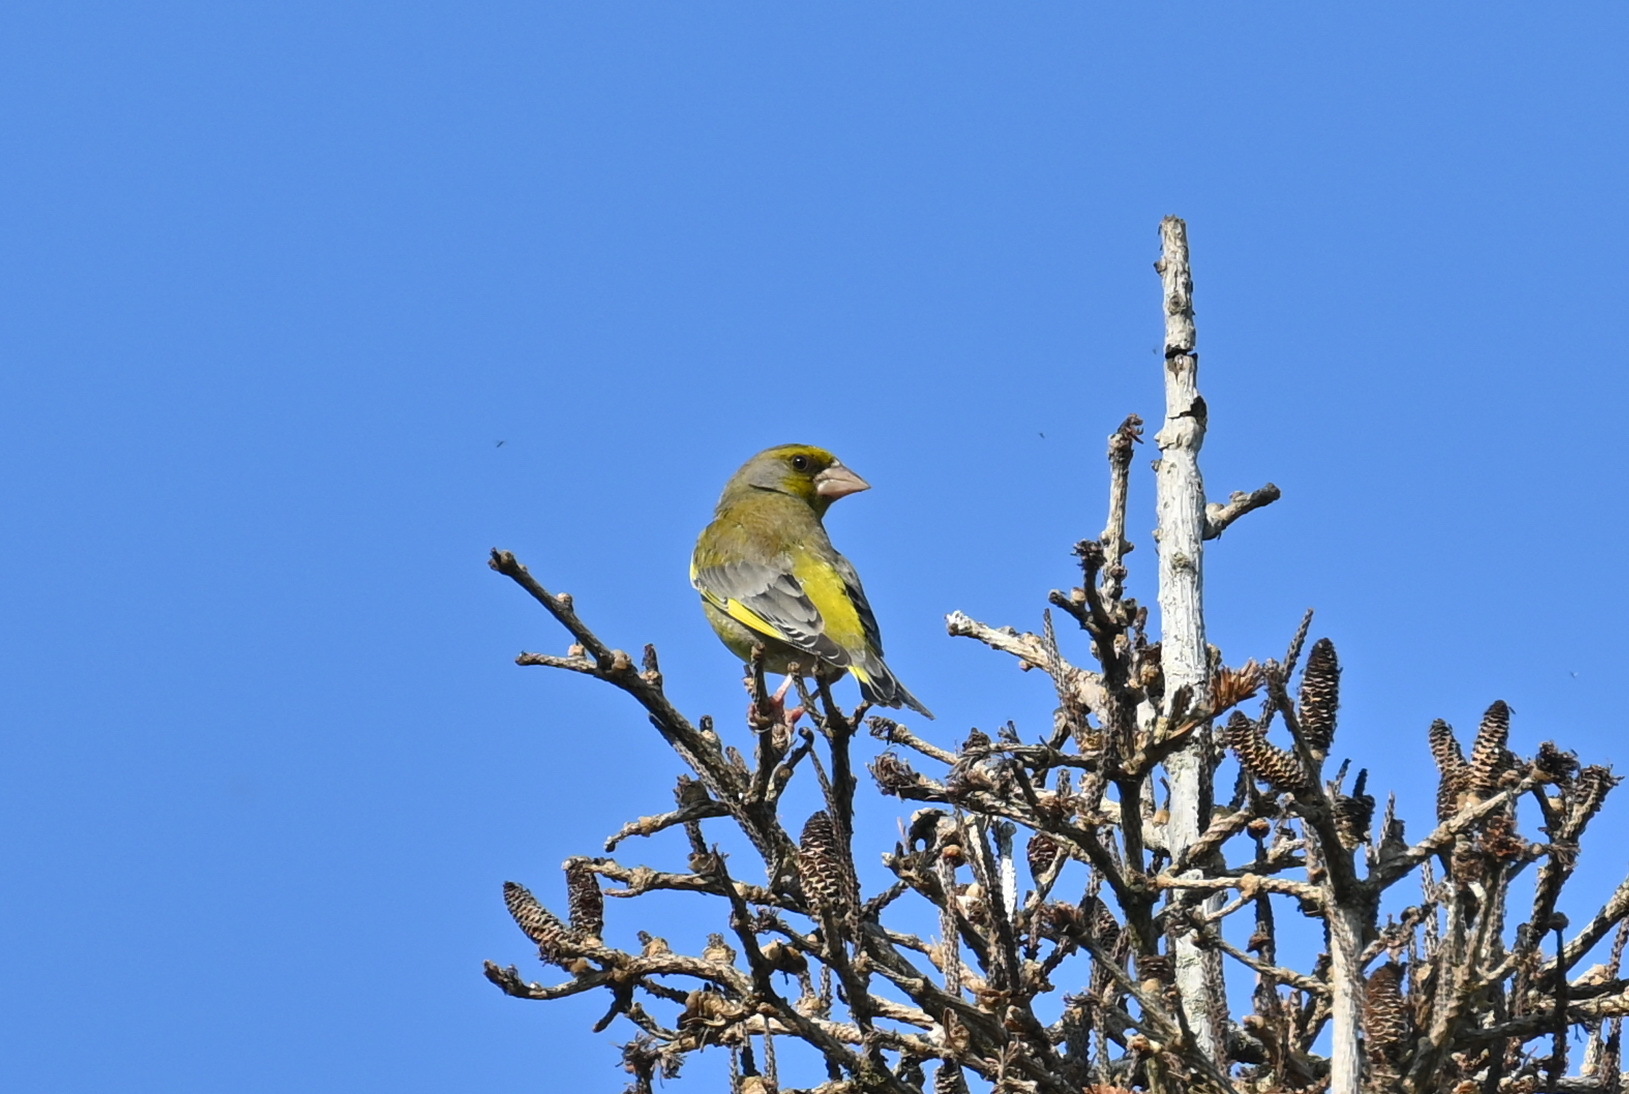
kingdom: Plantae
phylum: Tracheophyta
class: Liliopsida
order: Poales
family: Poaceae
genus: Chloris
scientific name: Chloris chloris
